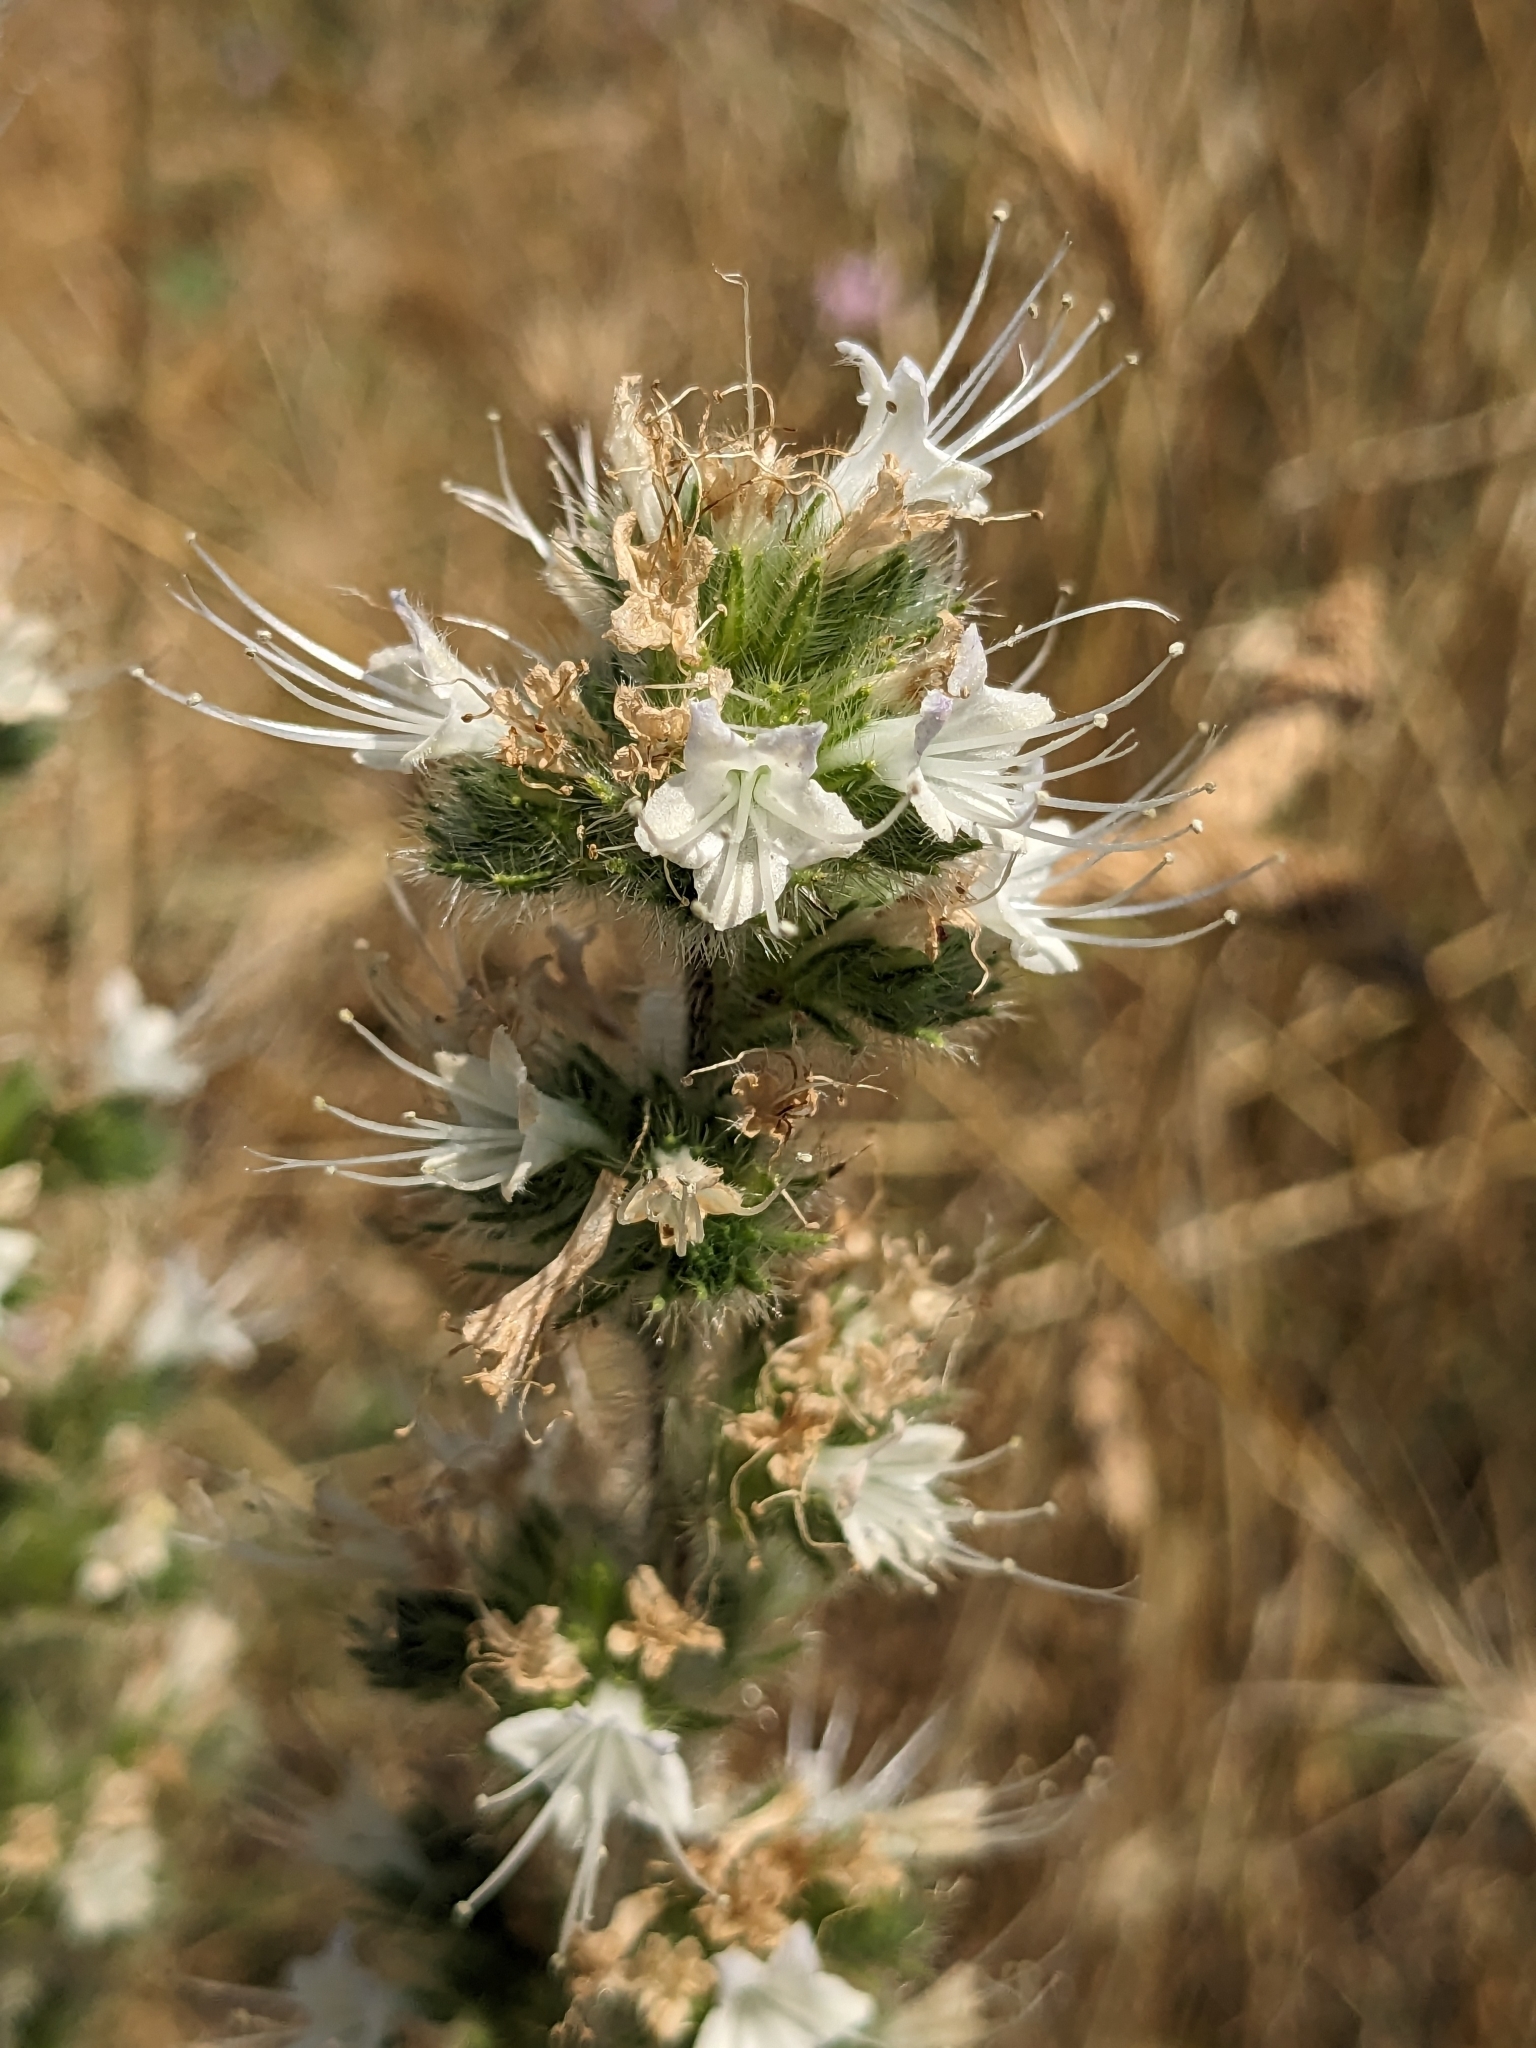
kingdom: Plantae
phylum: Tracheophyta
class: Magnoliopsida
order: Boraginales
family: Boraginaceae
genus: Echium
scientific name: Echium italicum
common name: Italian viper's bugloss
